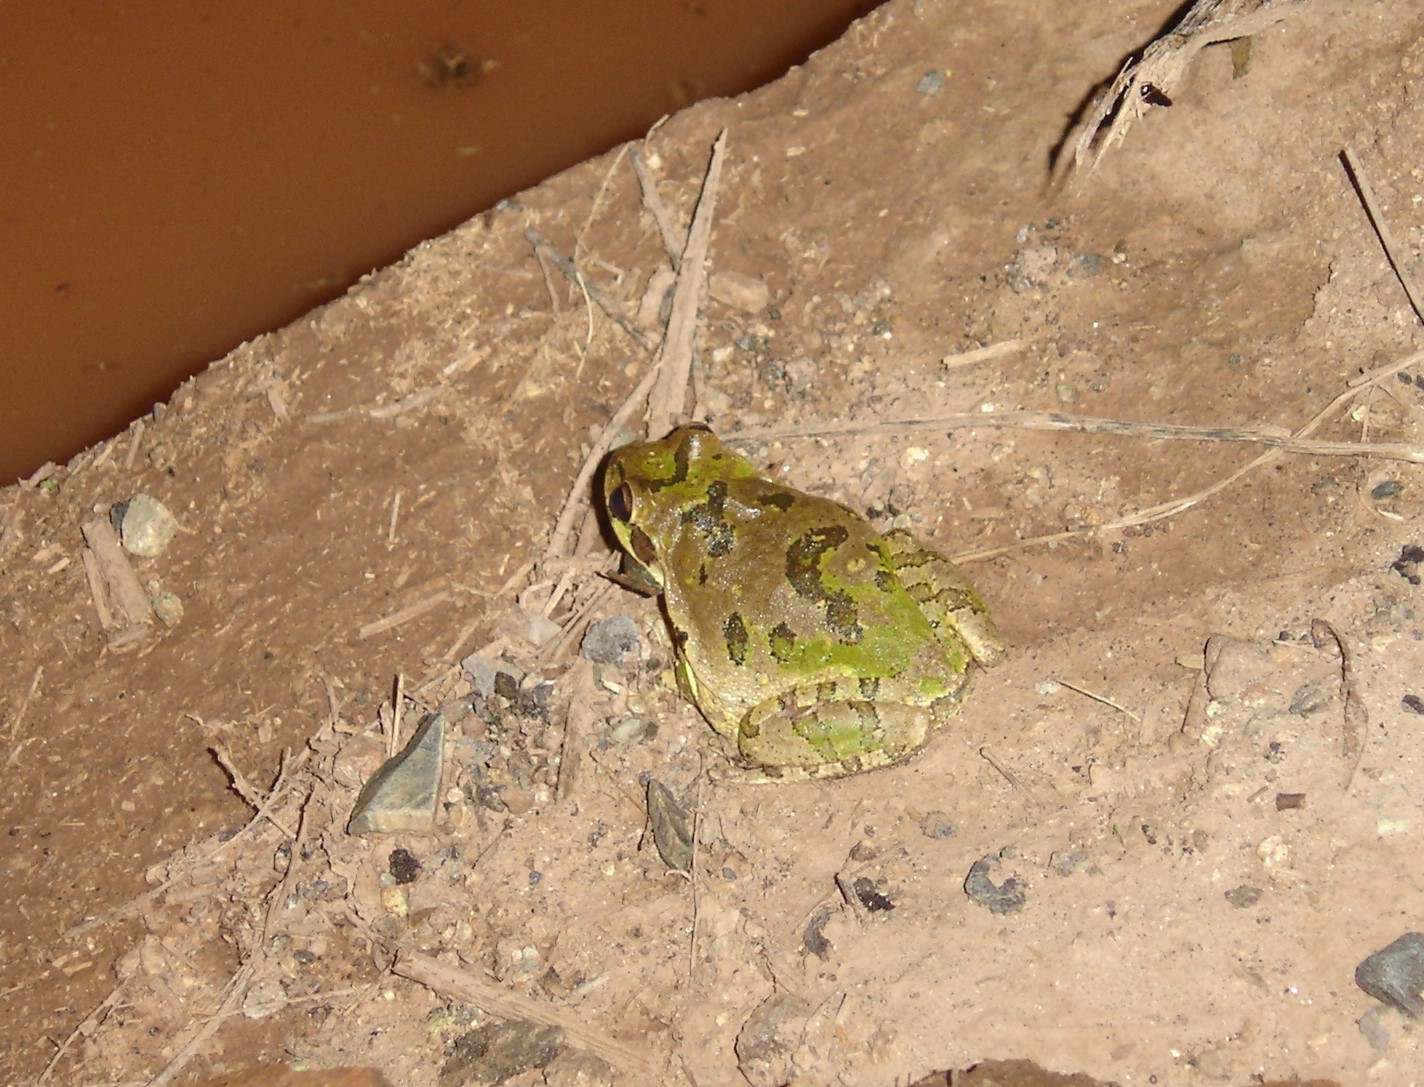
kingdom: Animalia
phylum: Chordata
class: Amphibia
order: Anura
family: Hylidae
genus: Smilisca
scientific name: Smilisca baudinii
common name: Mexican smilisca
